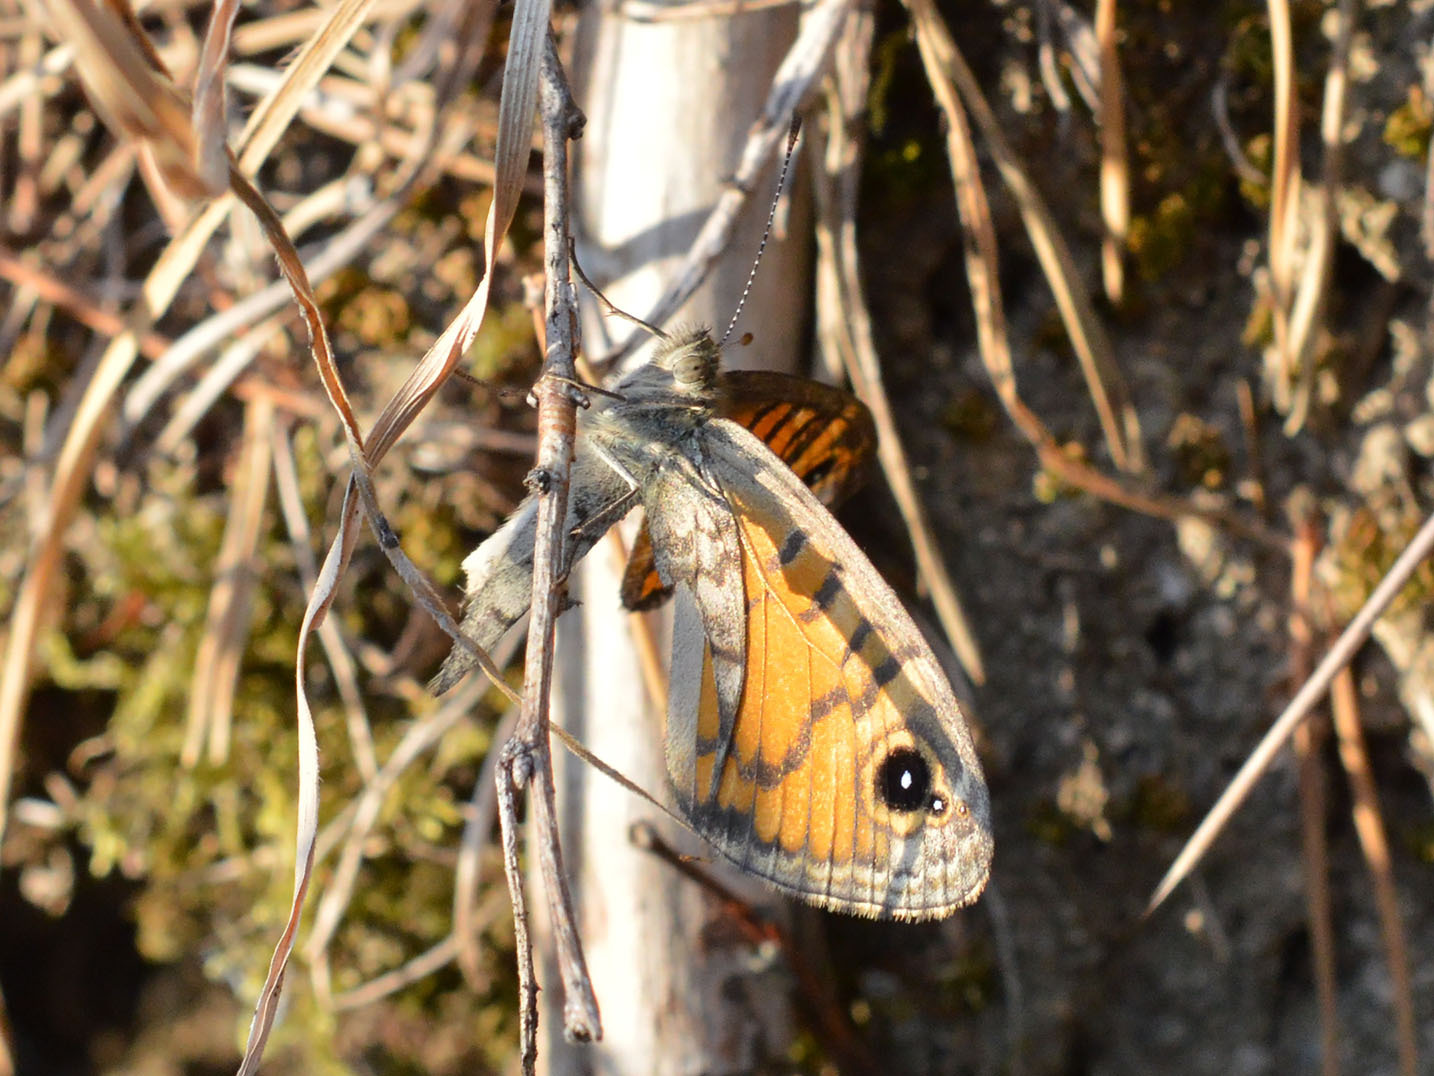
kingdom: Animalia
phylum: Arthropoda
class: Insecta
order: Lepidoptera
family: Nymphalidae
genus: Pararge
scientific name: Pararge Lasiommata megera
